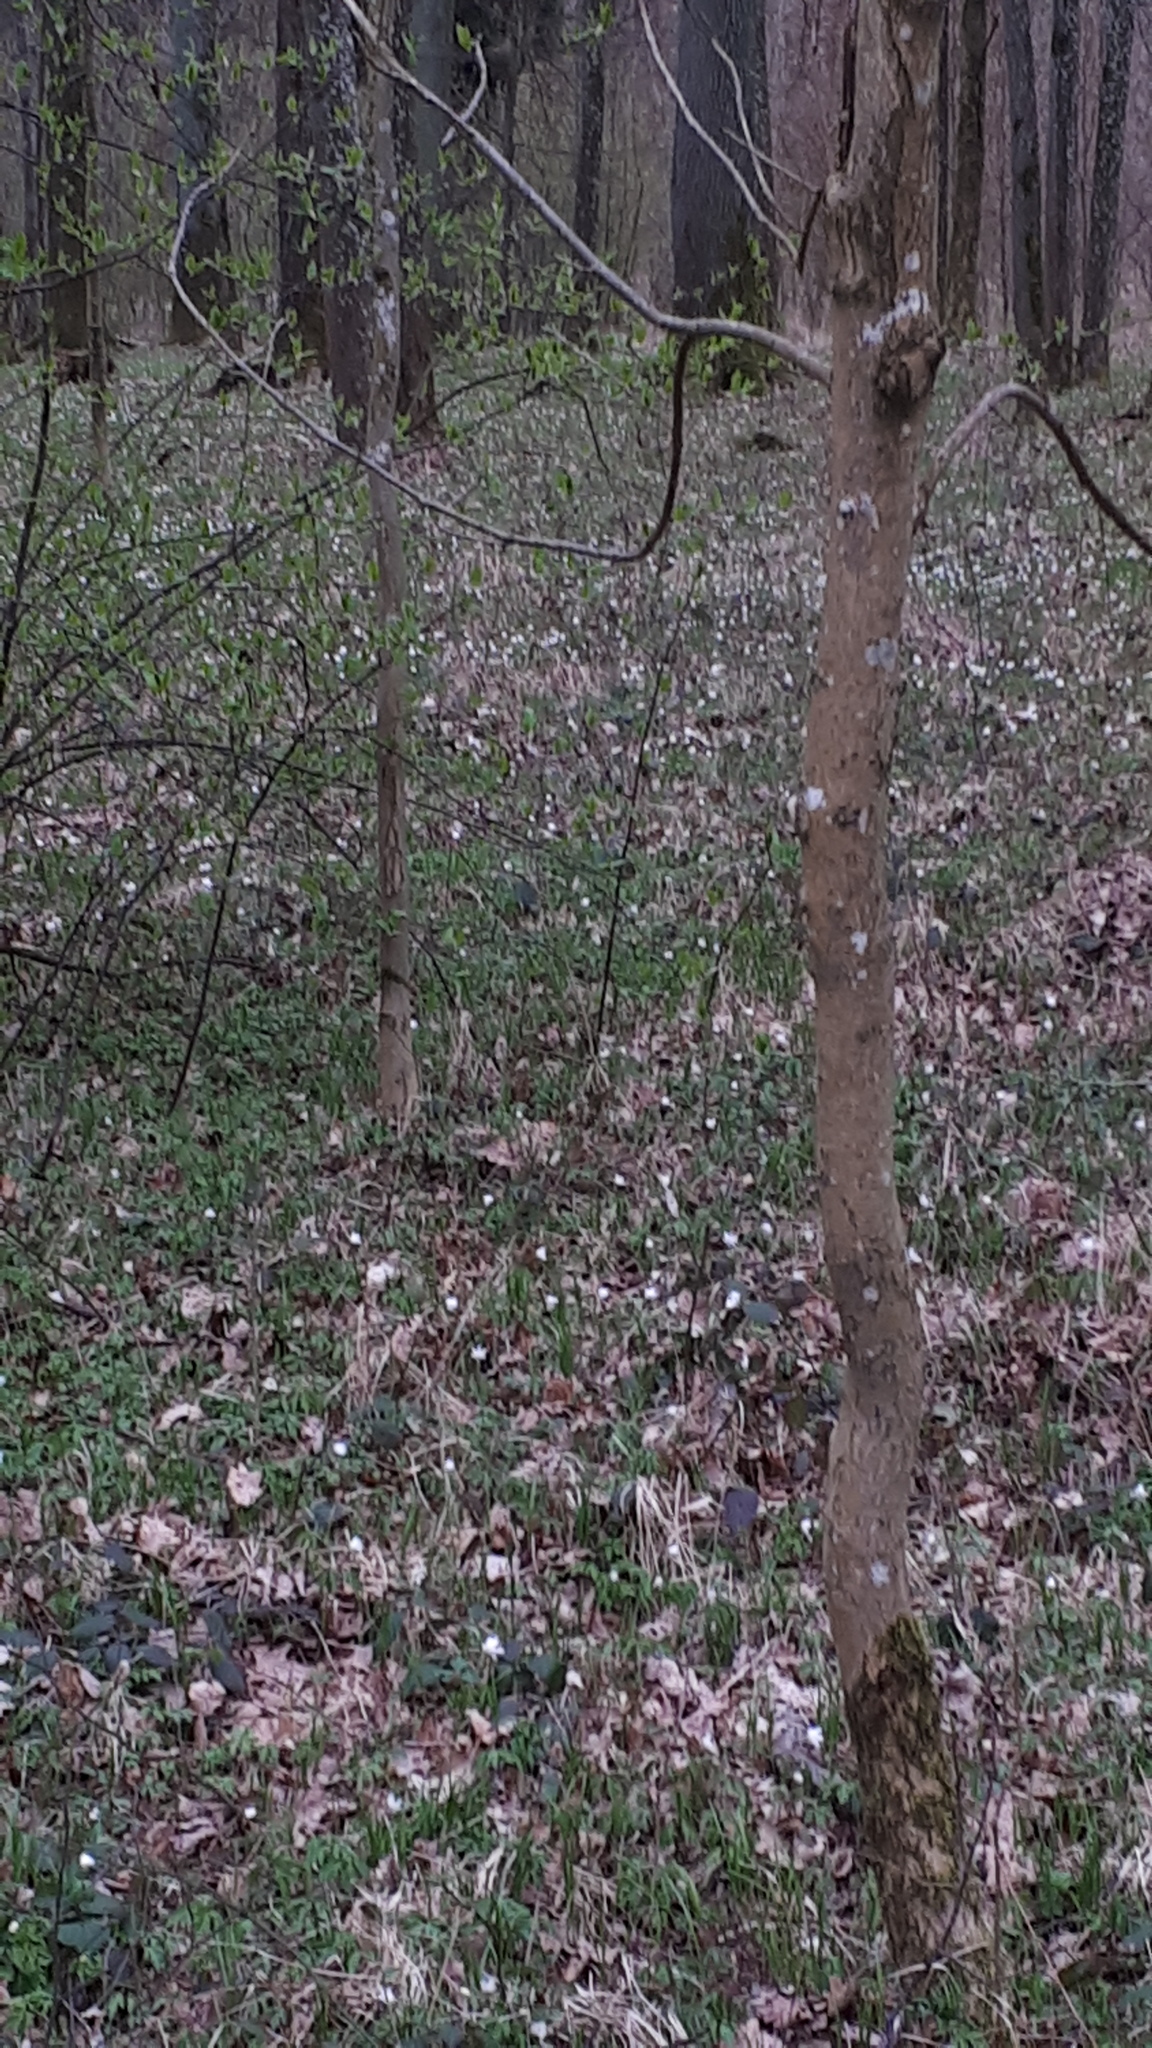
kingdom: Plantae
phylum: Tracheophyta
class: Magnoliopsida
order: Ranunculales
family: Ranunculaceae
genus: Anemone
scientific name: Anemone nemorosa
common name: Wood anemone
